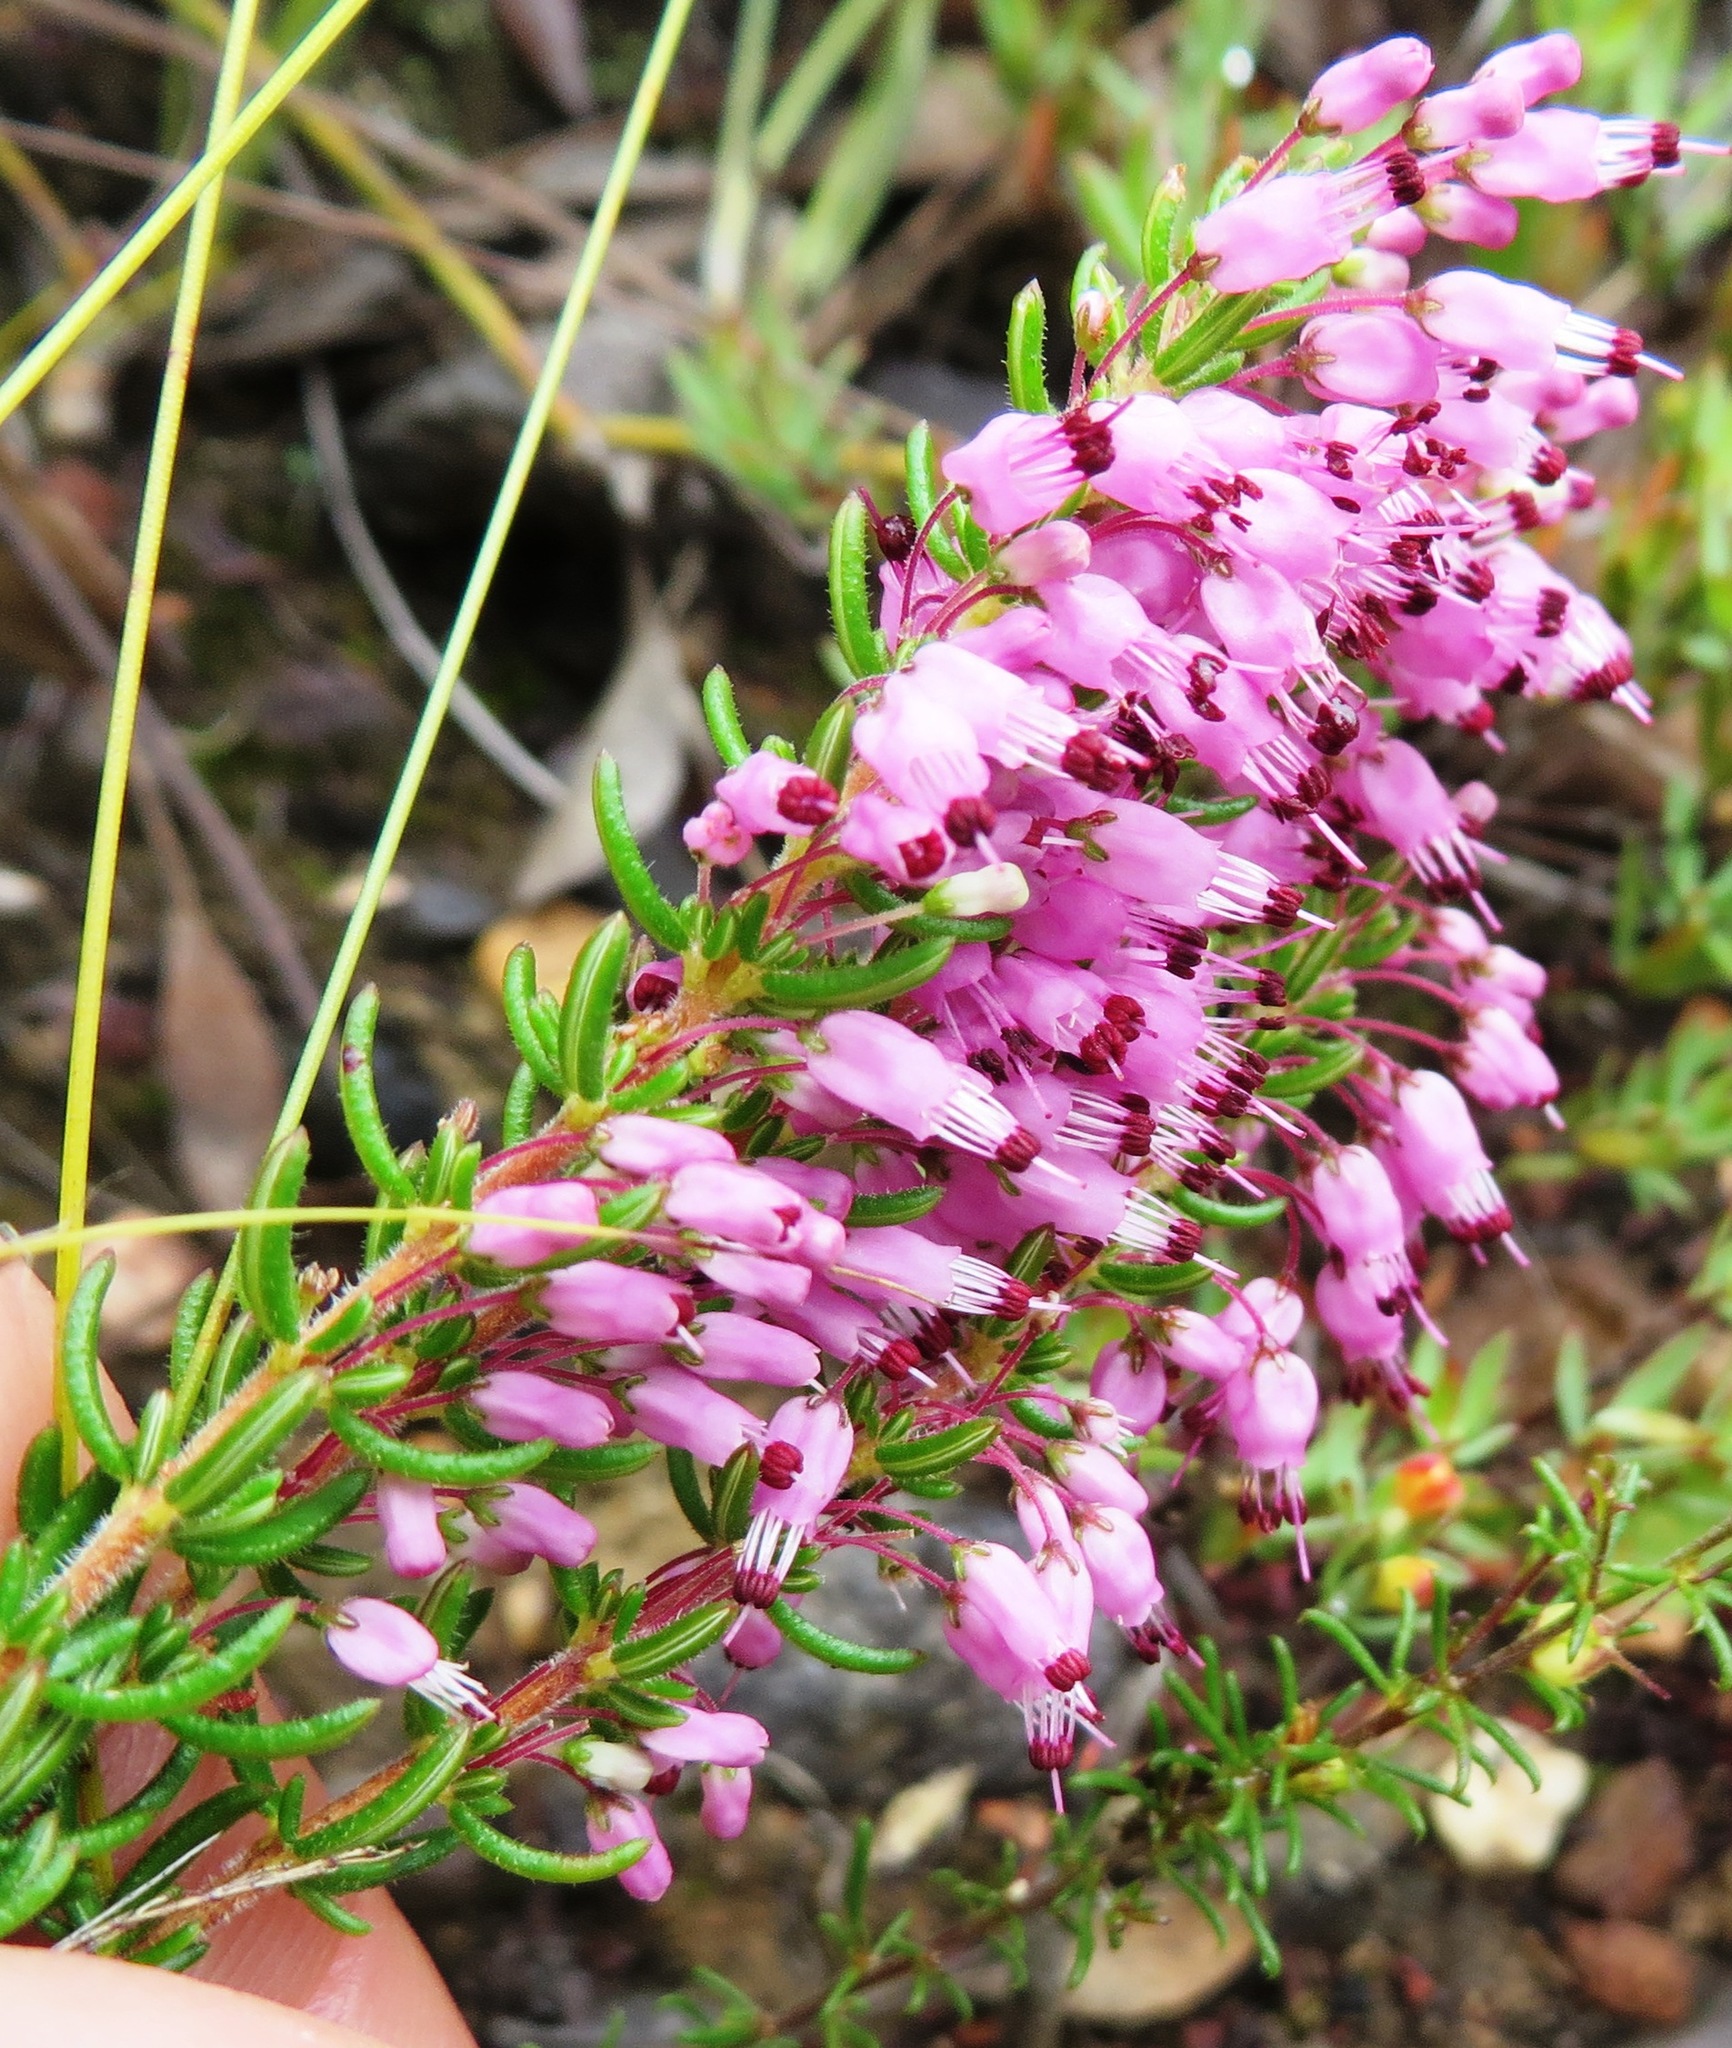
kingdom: Plantae
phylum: Tracheophyta
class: Magnoliopsida
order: Ericales
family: Ericaceae
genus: Erica
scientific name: Erica nudiflora
